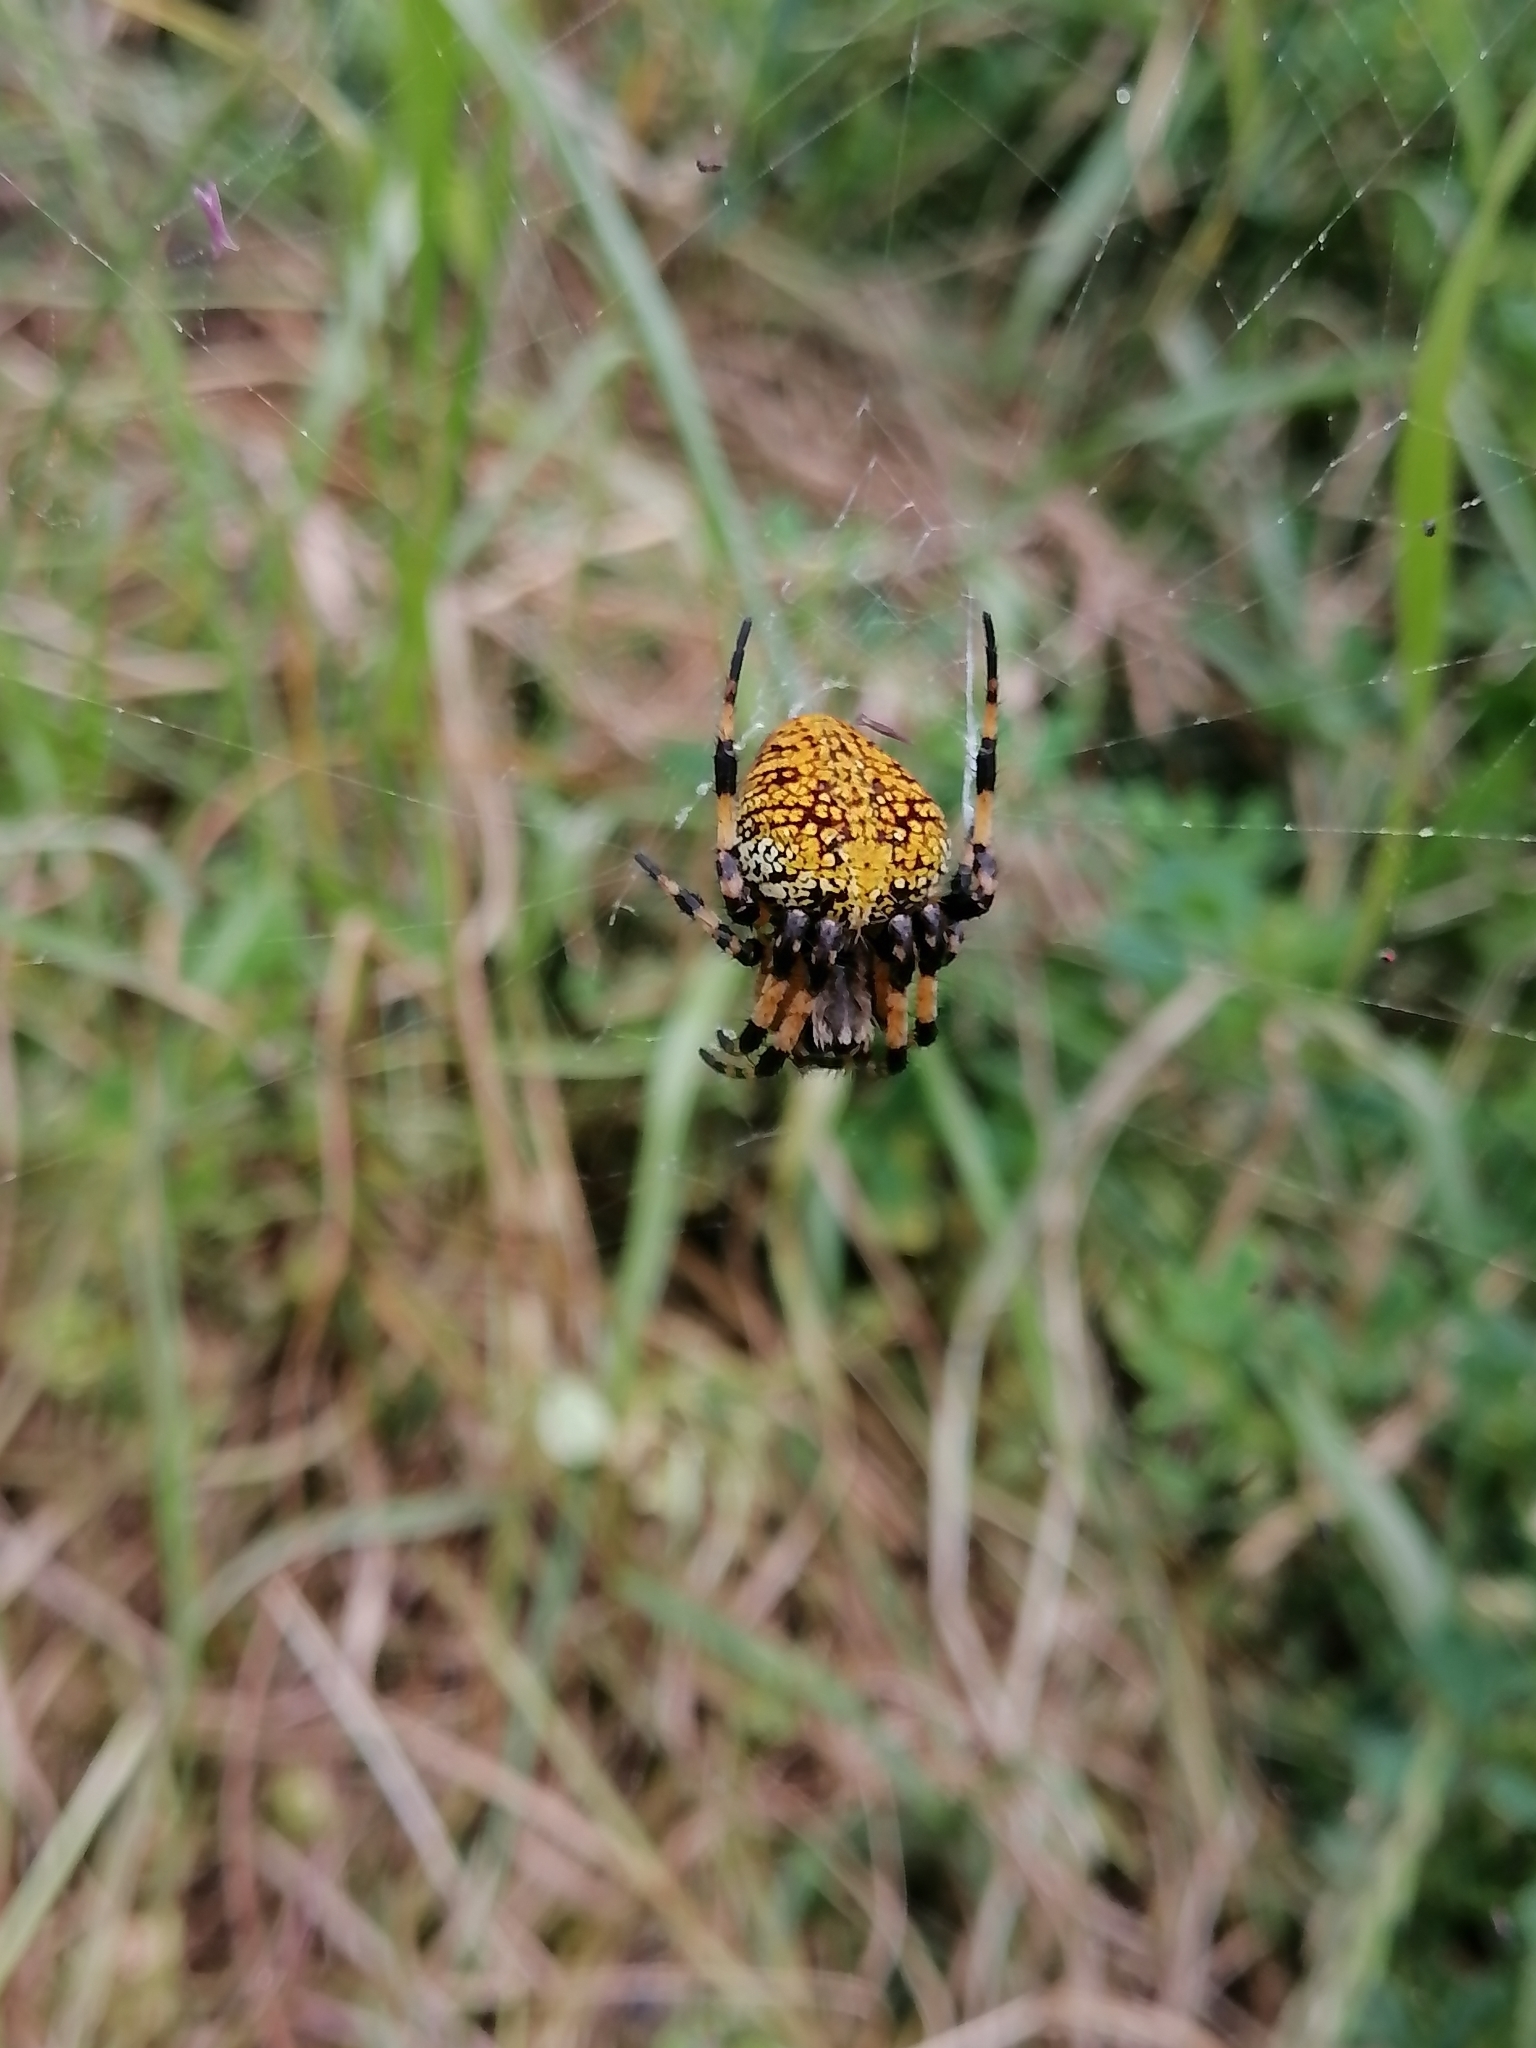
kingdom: Animalia
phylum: Arthropoda
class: Arachnida
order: Araneae
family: Araneidae
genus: Neoscona
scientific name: Neoscona orizabensis
